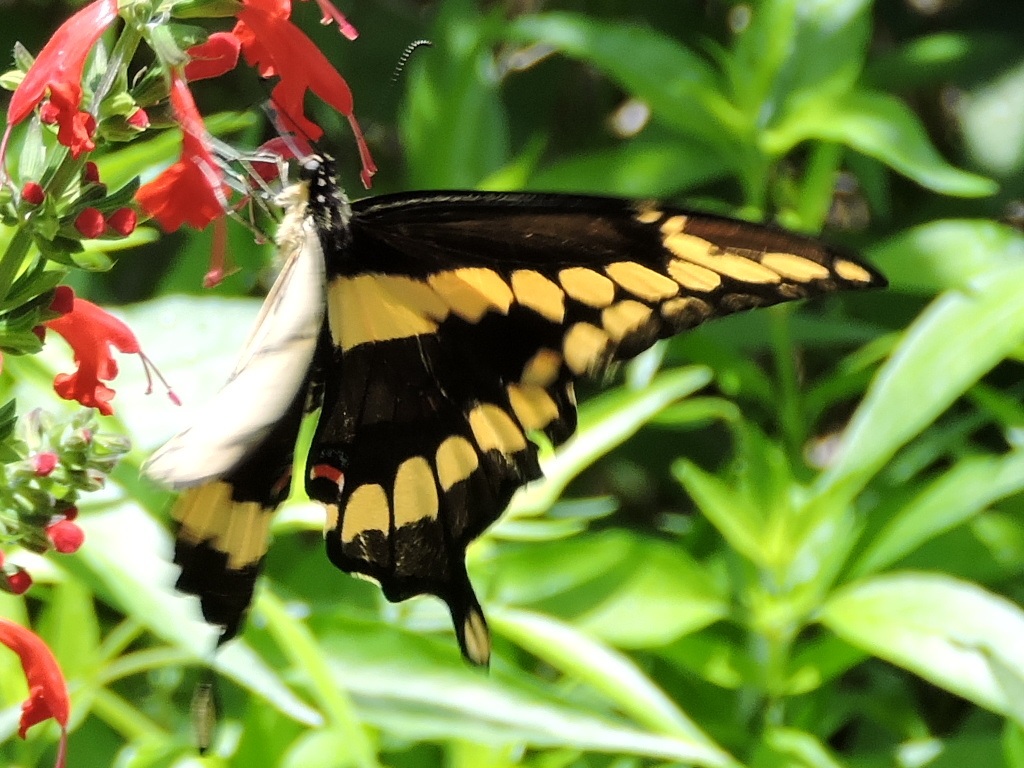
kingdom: Animalia
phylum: Arthropoda
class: Insecta
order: Lepidoptera
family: Papilionidae
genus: Papilio
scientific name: Papilio cresphontes
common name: Giant swallowtail
